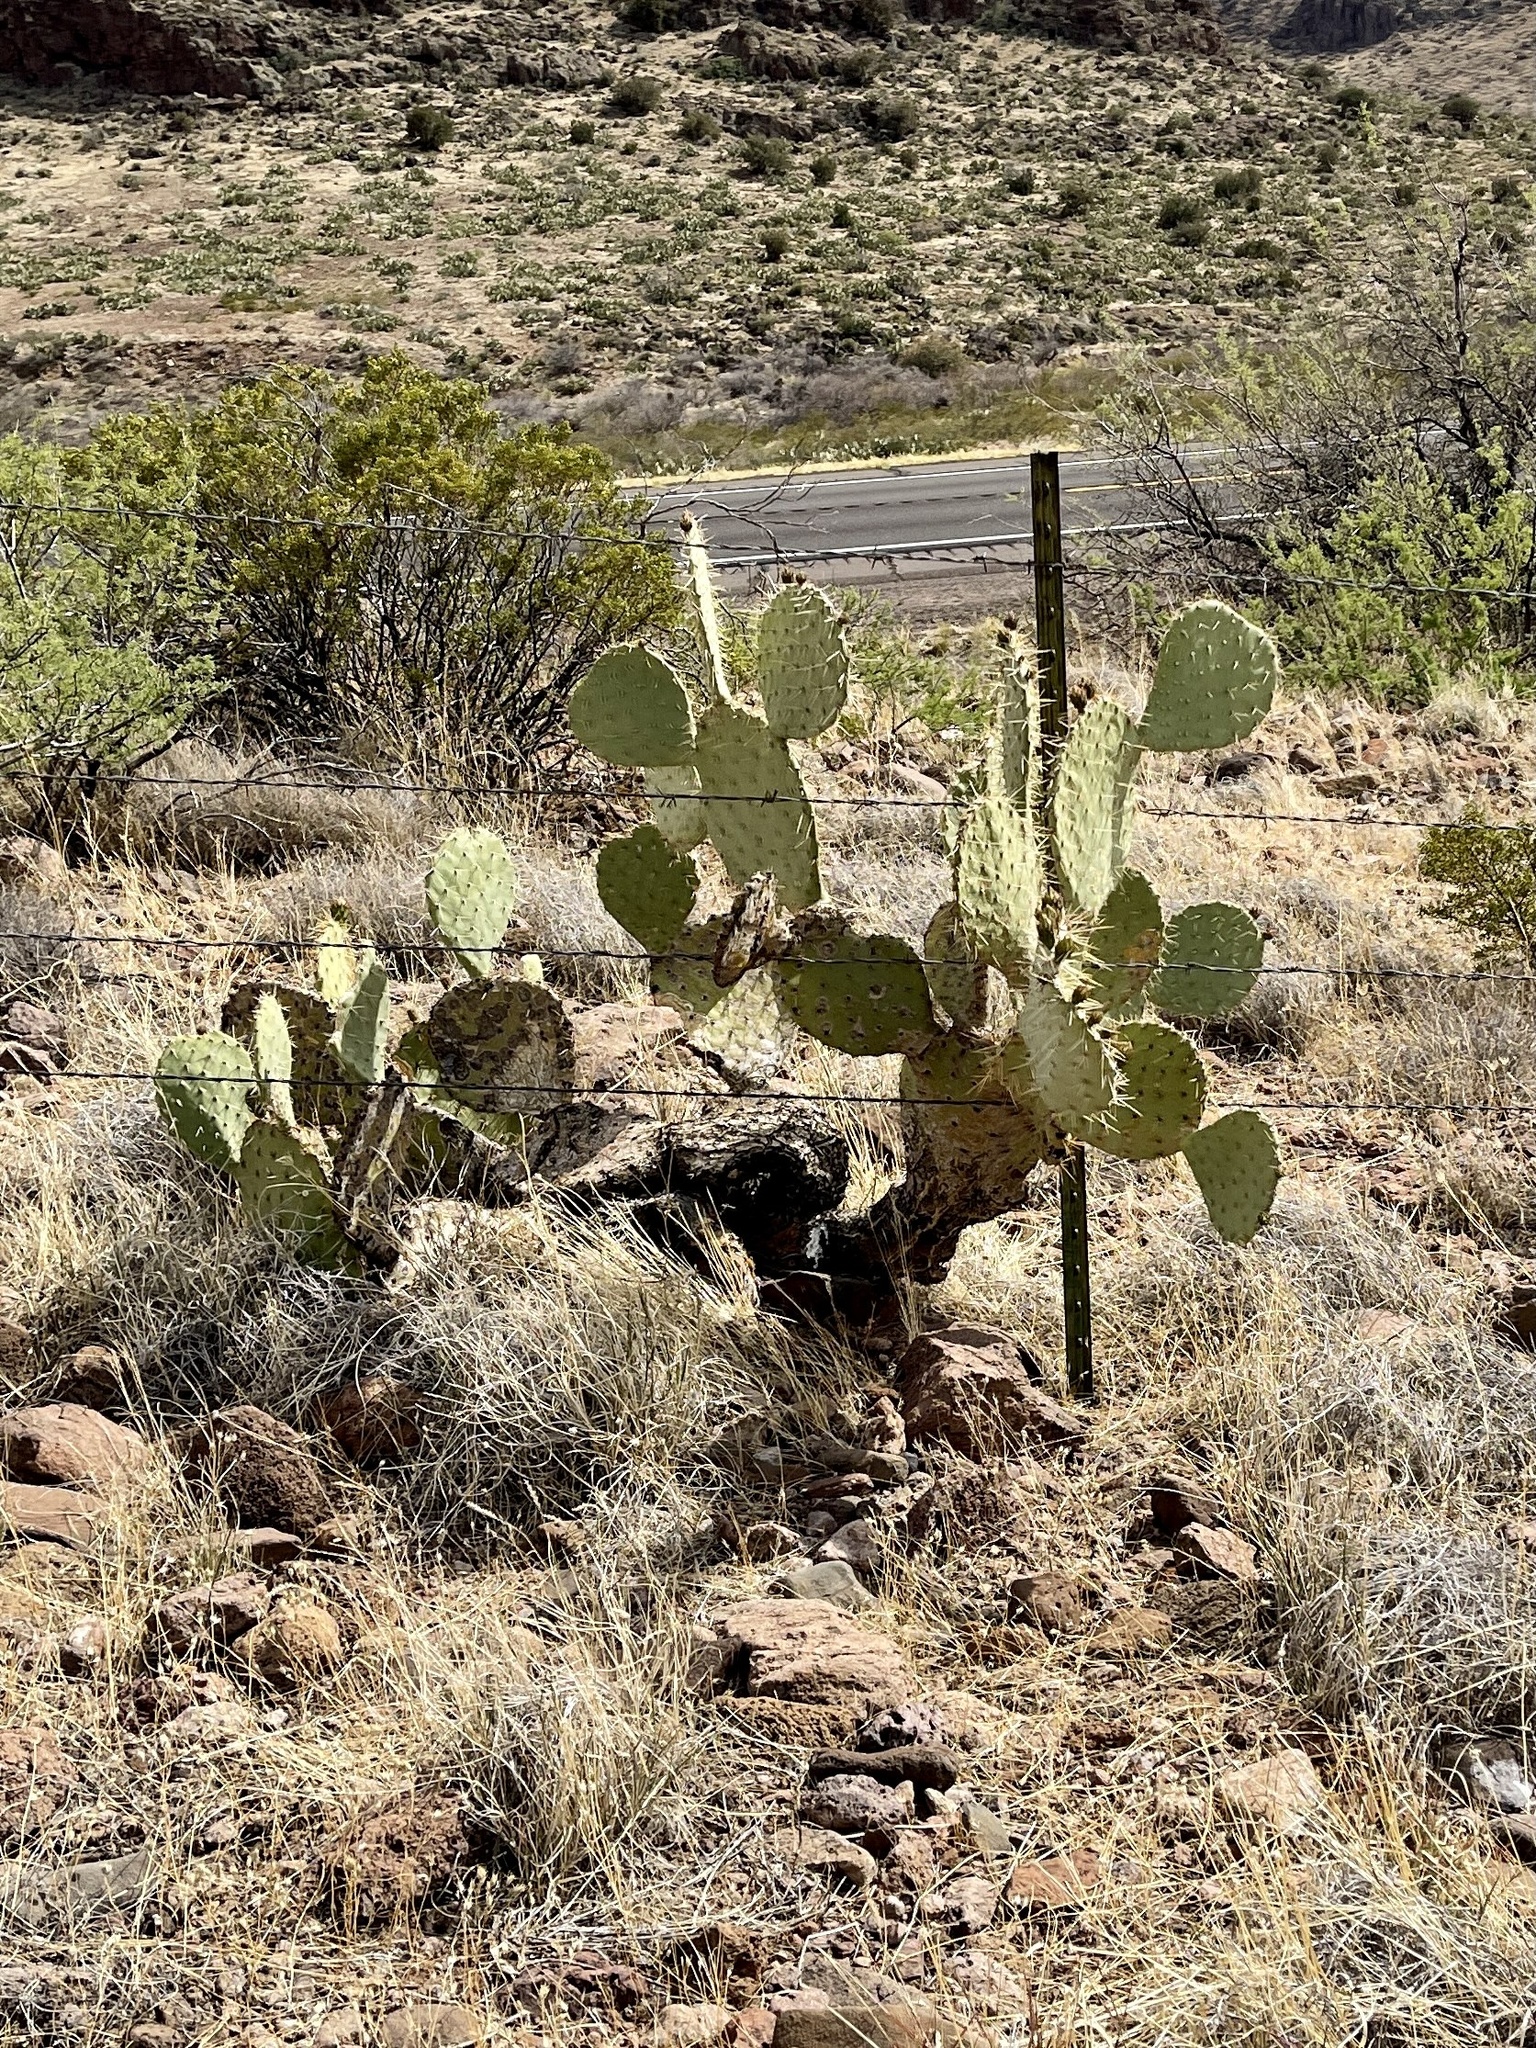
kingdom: Plantae
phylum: Tracheophyta
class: Magnoliopsida
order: Caryophyllales
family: Cactaceae
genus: Opuntia
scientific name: Opuntia engelmannii
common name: Cactus-apple
